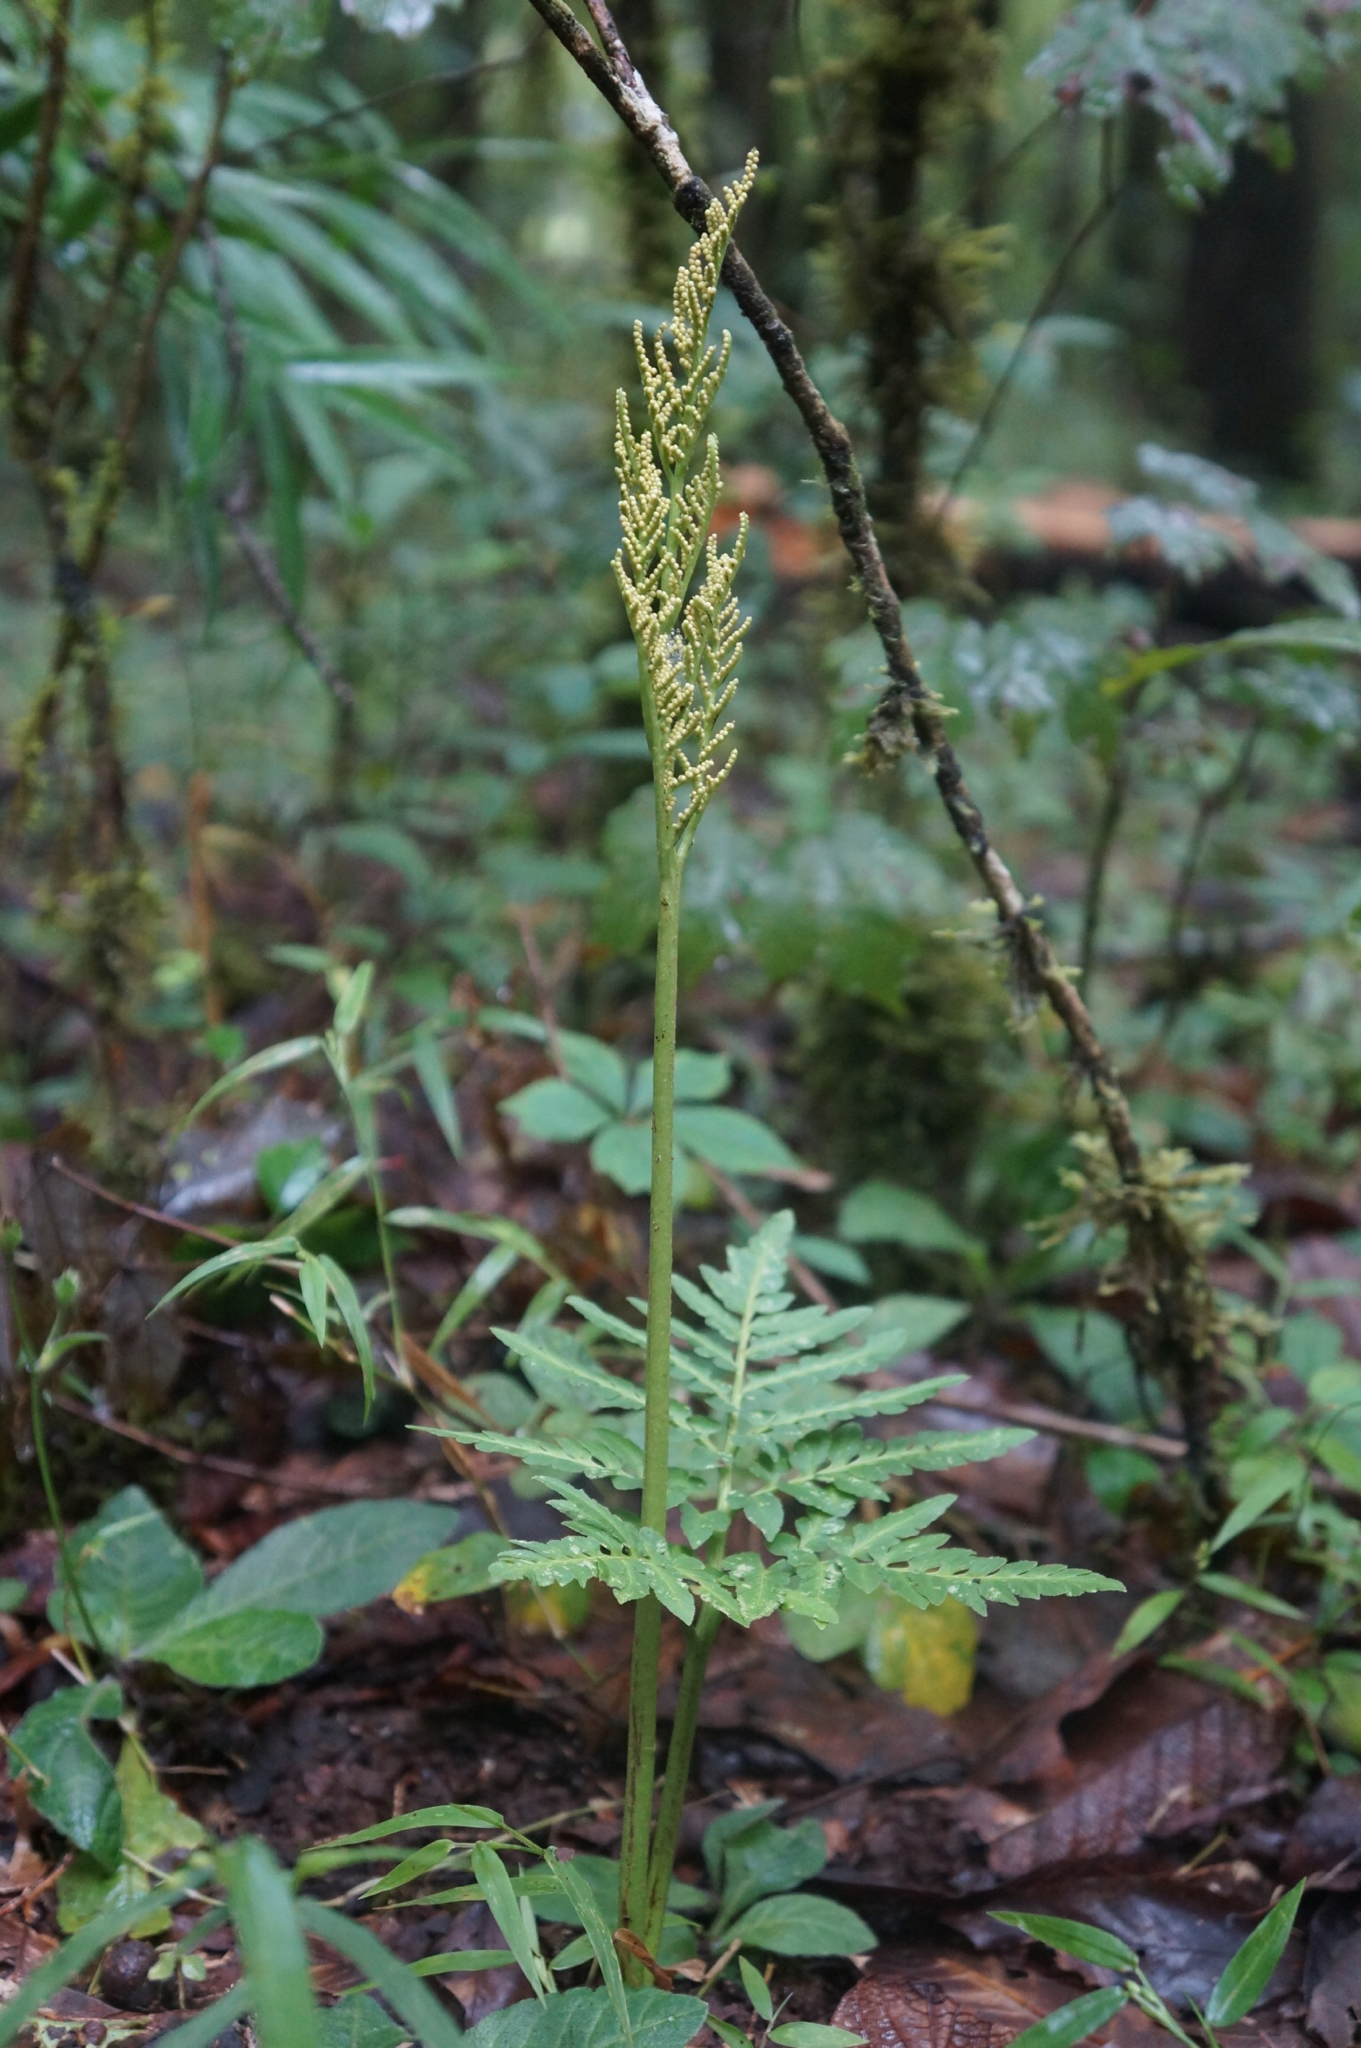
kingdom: Plantae
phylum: Tracheophyta
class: Polypodiopsida
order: Ophioglossales
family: Ophioglossaceae
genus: Botrypus
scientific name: Botrypus virginianus
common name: Common grapefern
